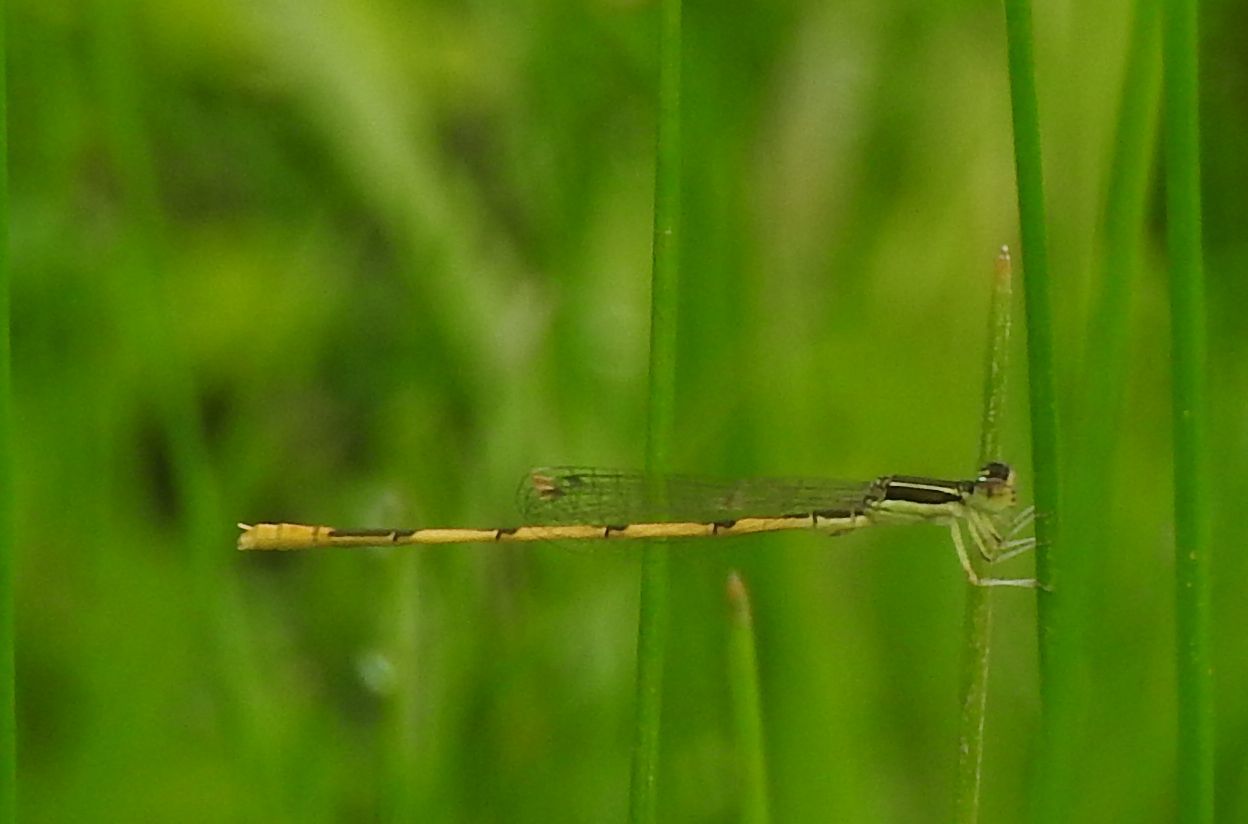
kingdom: Animalia
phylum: Arthropoda
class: Insecta
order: Odonata
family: Coenagrionidae
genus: Ischnura
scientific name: Ischnura hastata
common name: Citrine forktail
